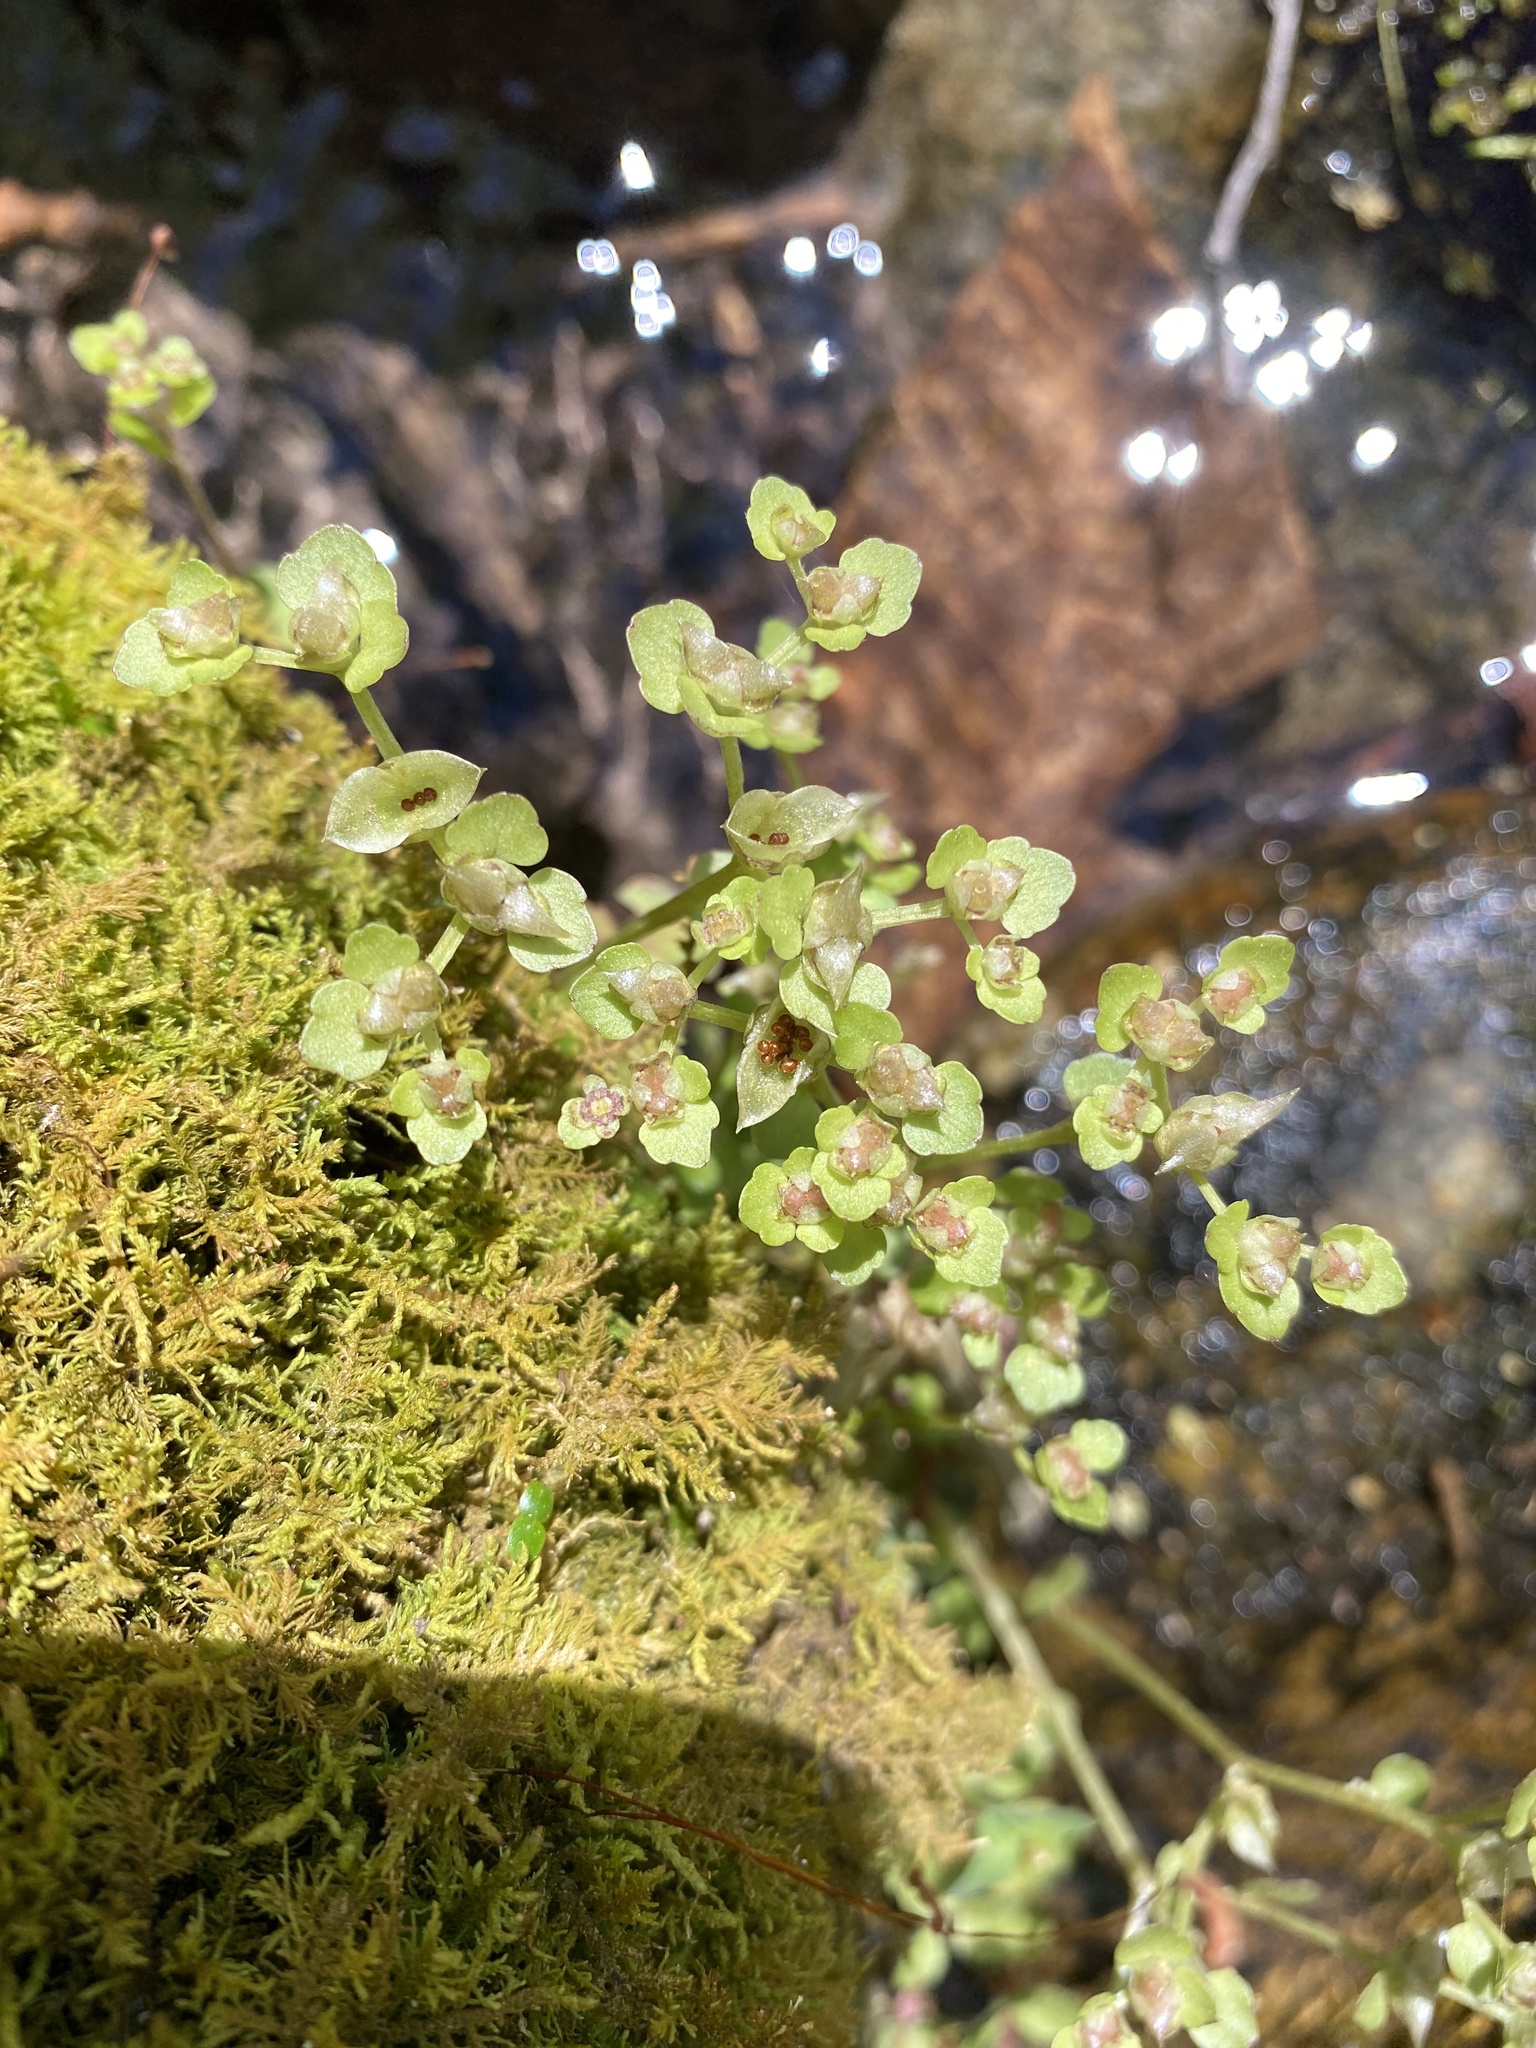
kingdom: Plantae
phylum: Tracheophyta
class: Magnoliopsida
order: Saxifragales
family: Saxifragaceae
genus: Chrysosplenium
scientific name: Chrysosplenium americanum
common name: American golden-saxifrage
